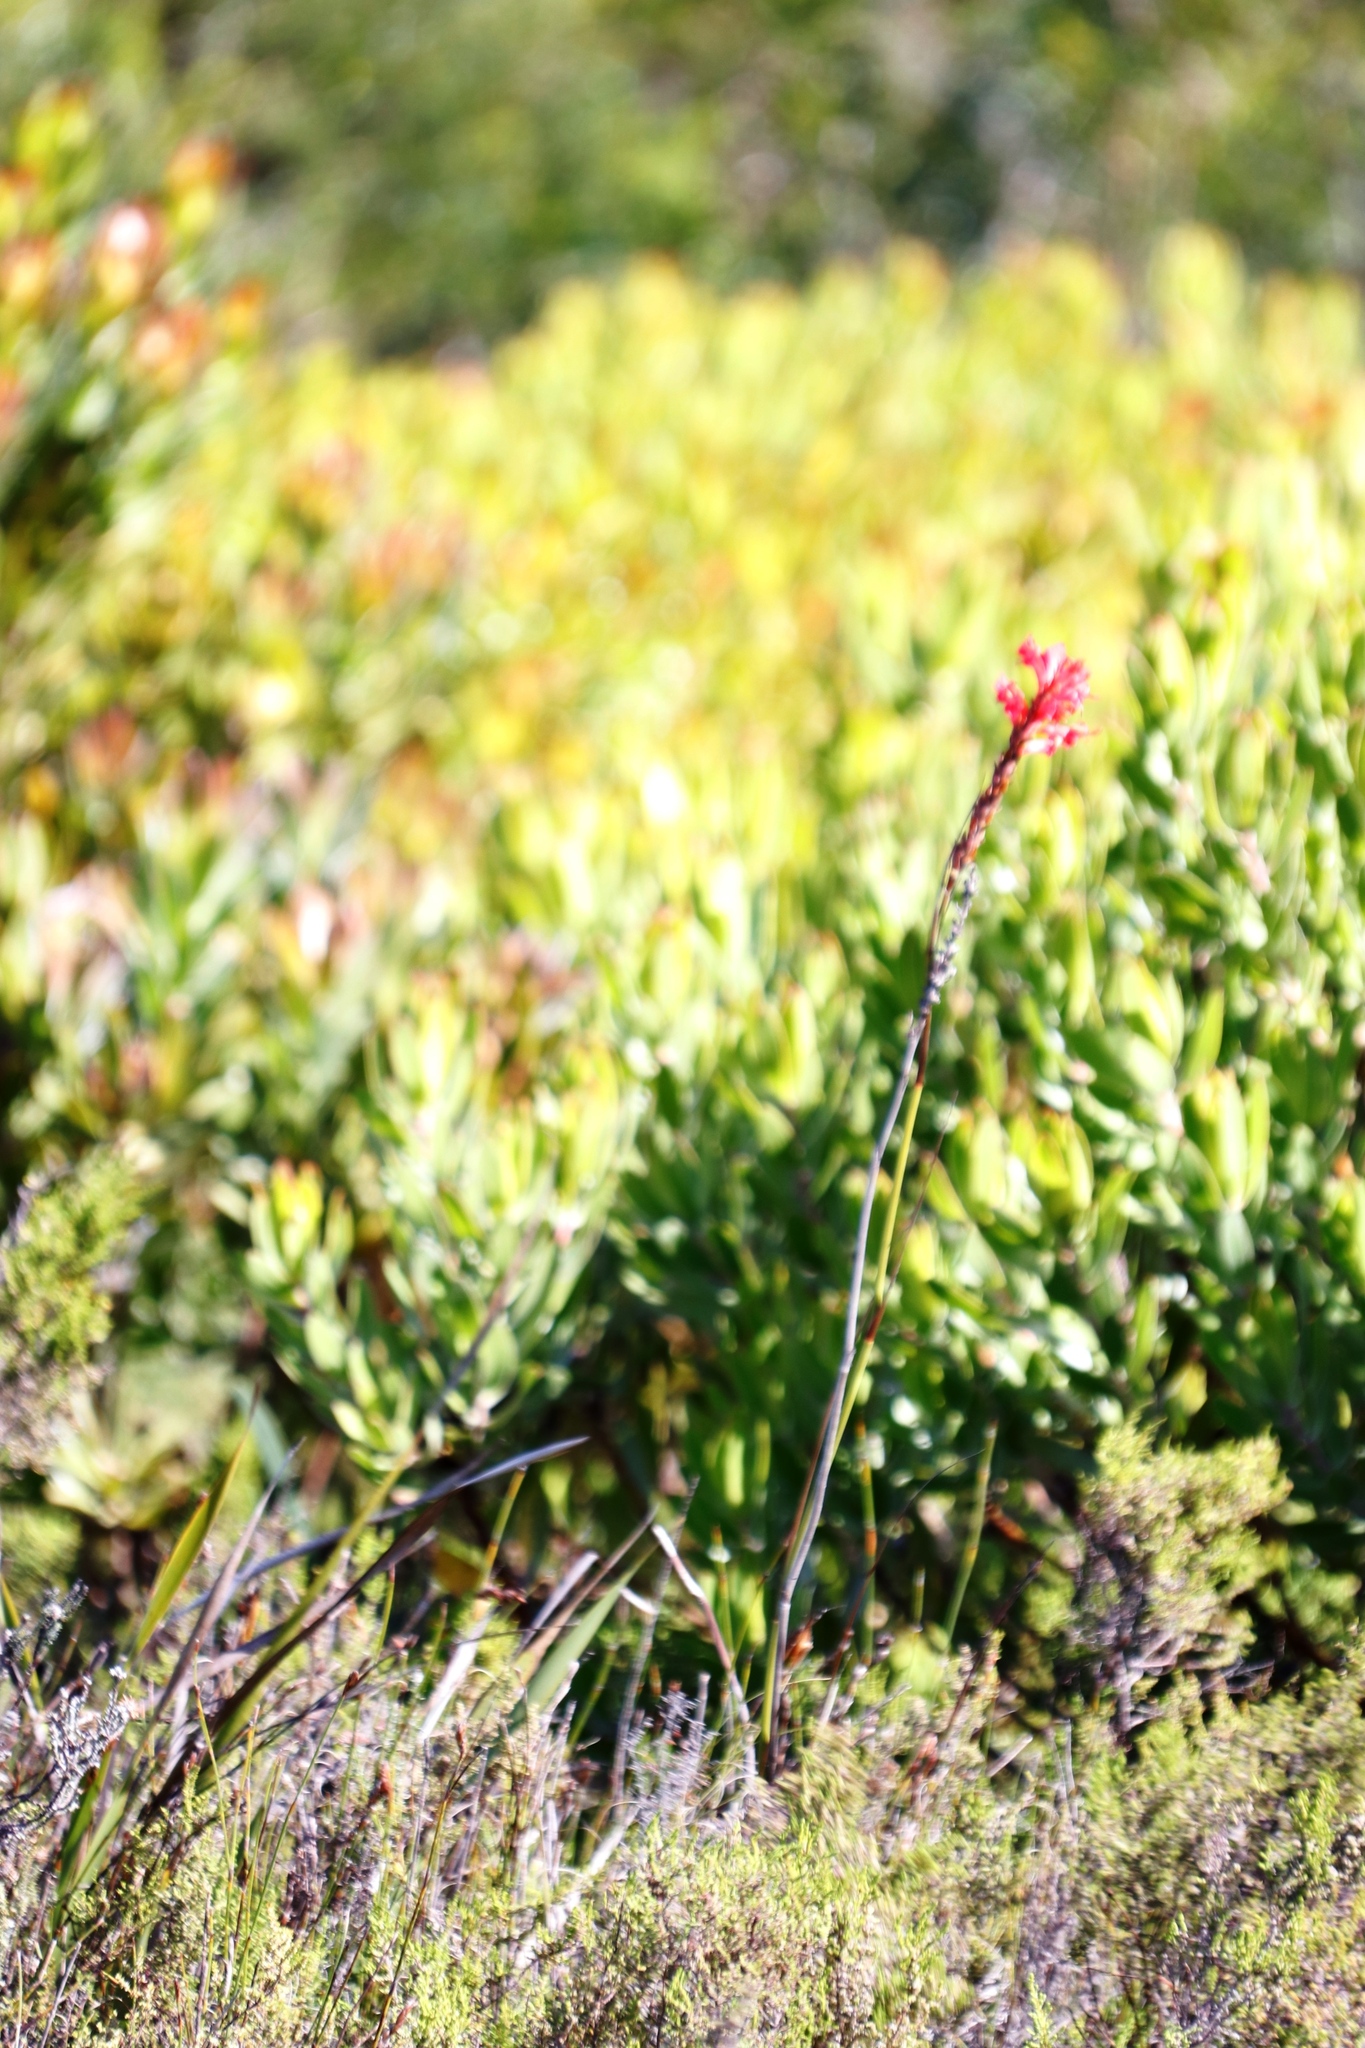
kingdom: Plantae
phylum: Tracheophyta
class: Liliopsida
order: Asparagales
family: Iridaceae
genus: Tritoniopsis
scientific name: Tritoniopsis triticea
